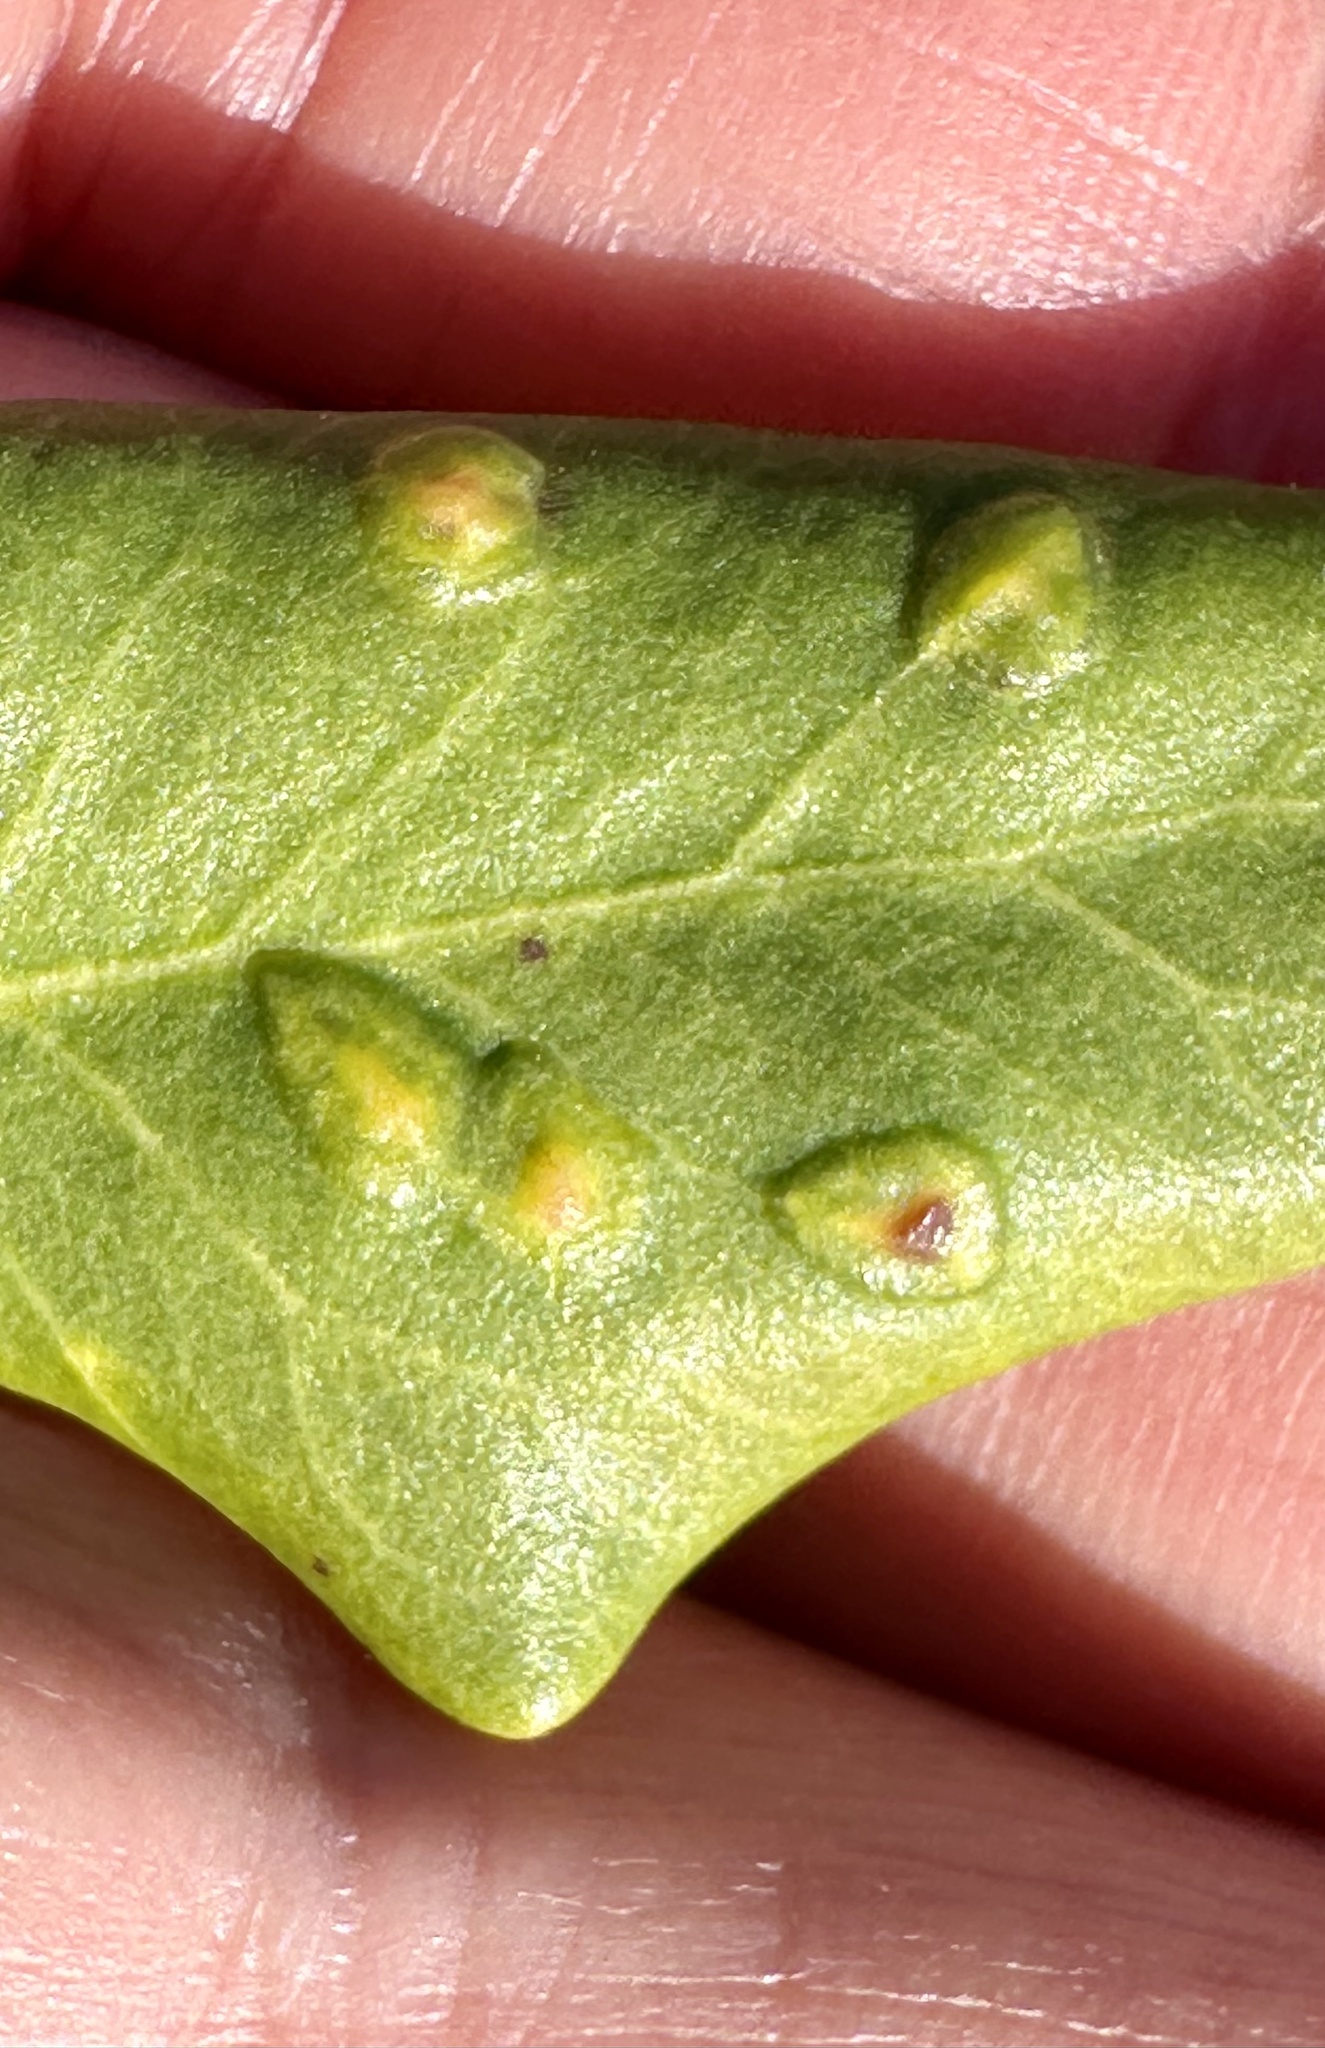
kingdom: Plantae
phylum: Tracheophyta
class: Magnoliopsida
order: Garryales
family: Garryaceae
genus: Garrya
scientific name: Garrya elliptica
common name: Silk-tassel
